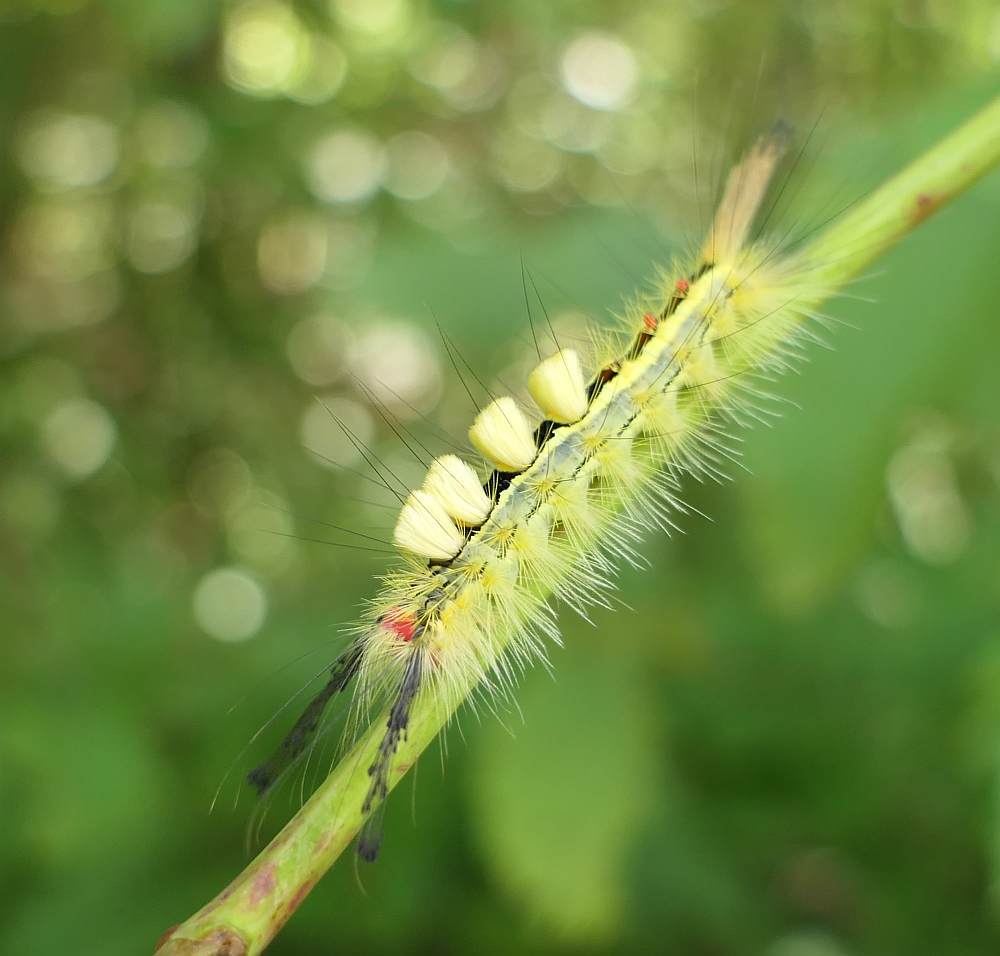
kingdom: Animalia
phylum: Arthropoda
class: Insecta
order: Lepidoptera
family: Erebidae
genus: Orgyia
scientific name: Orgyia leucostigma
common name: White-marked tussock moth
